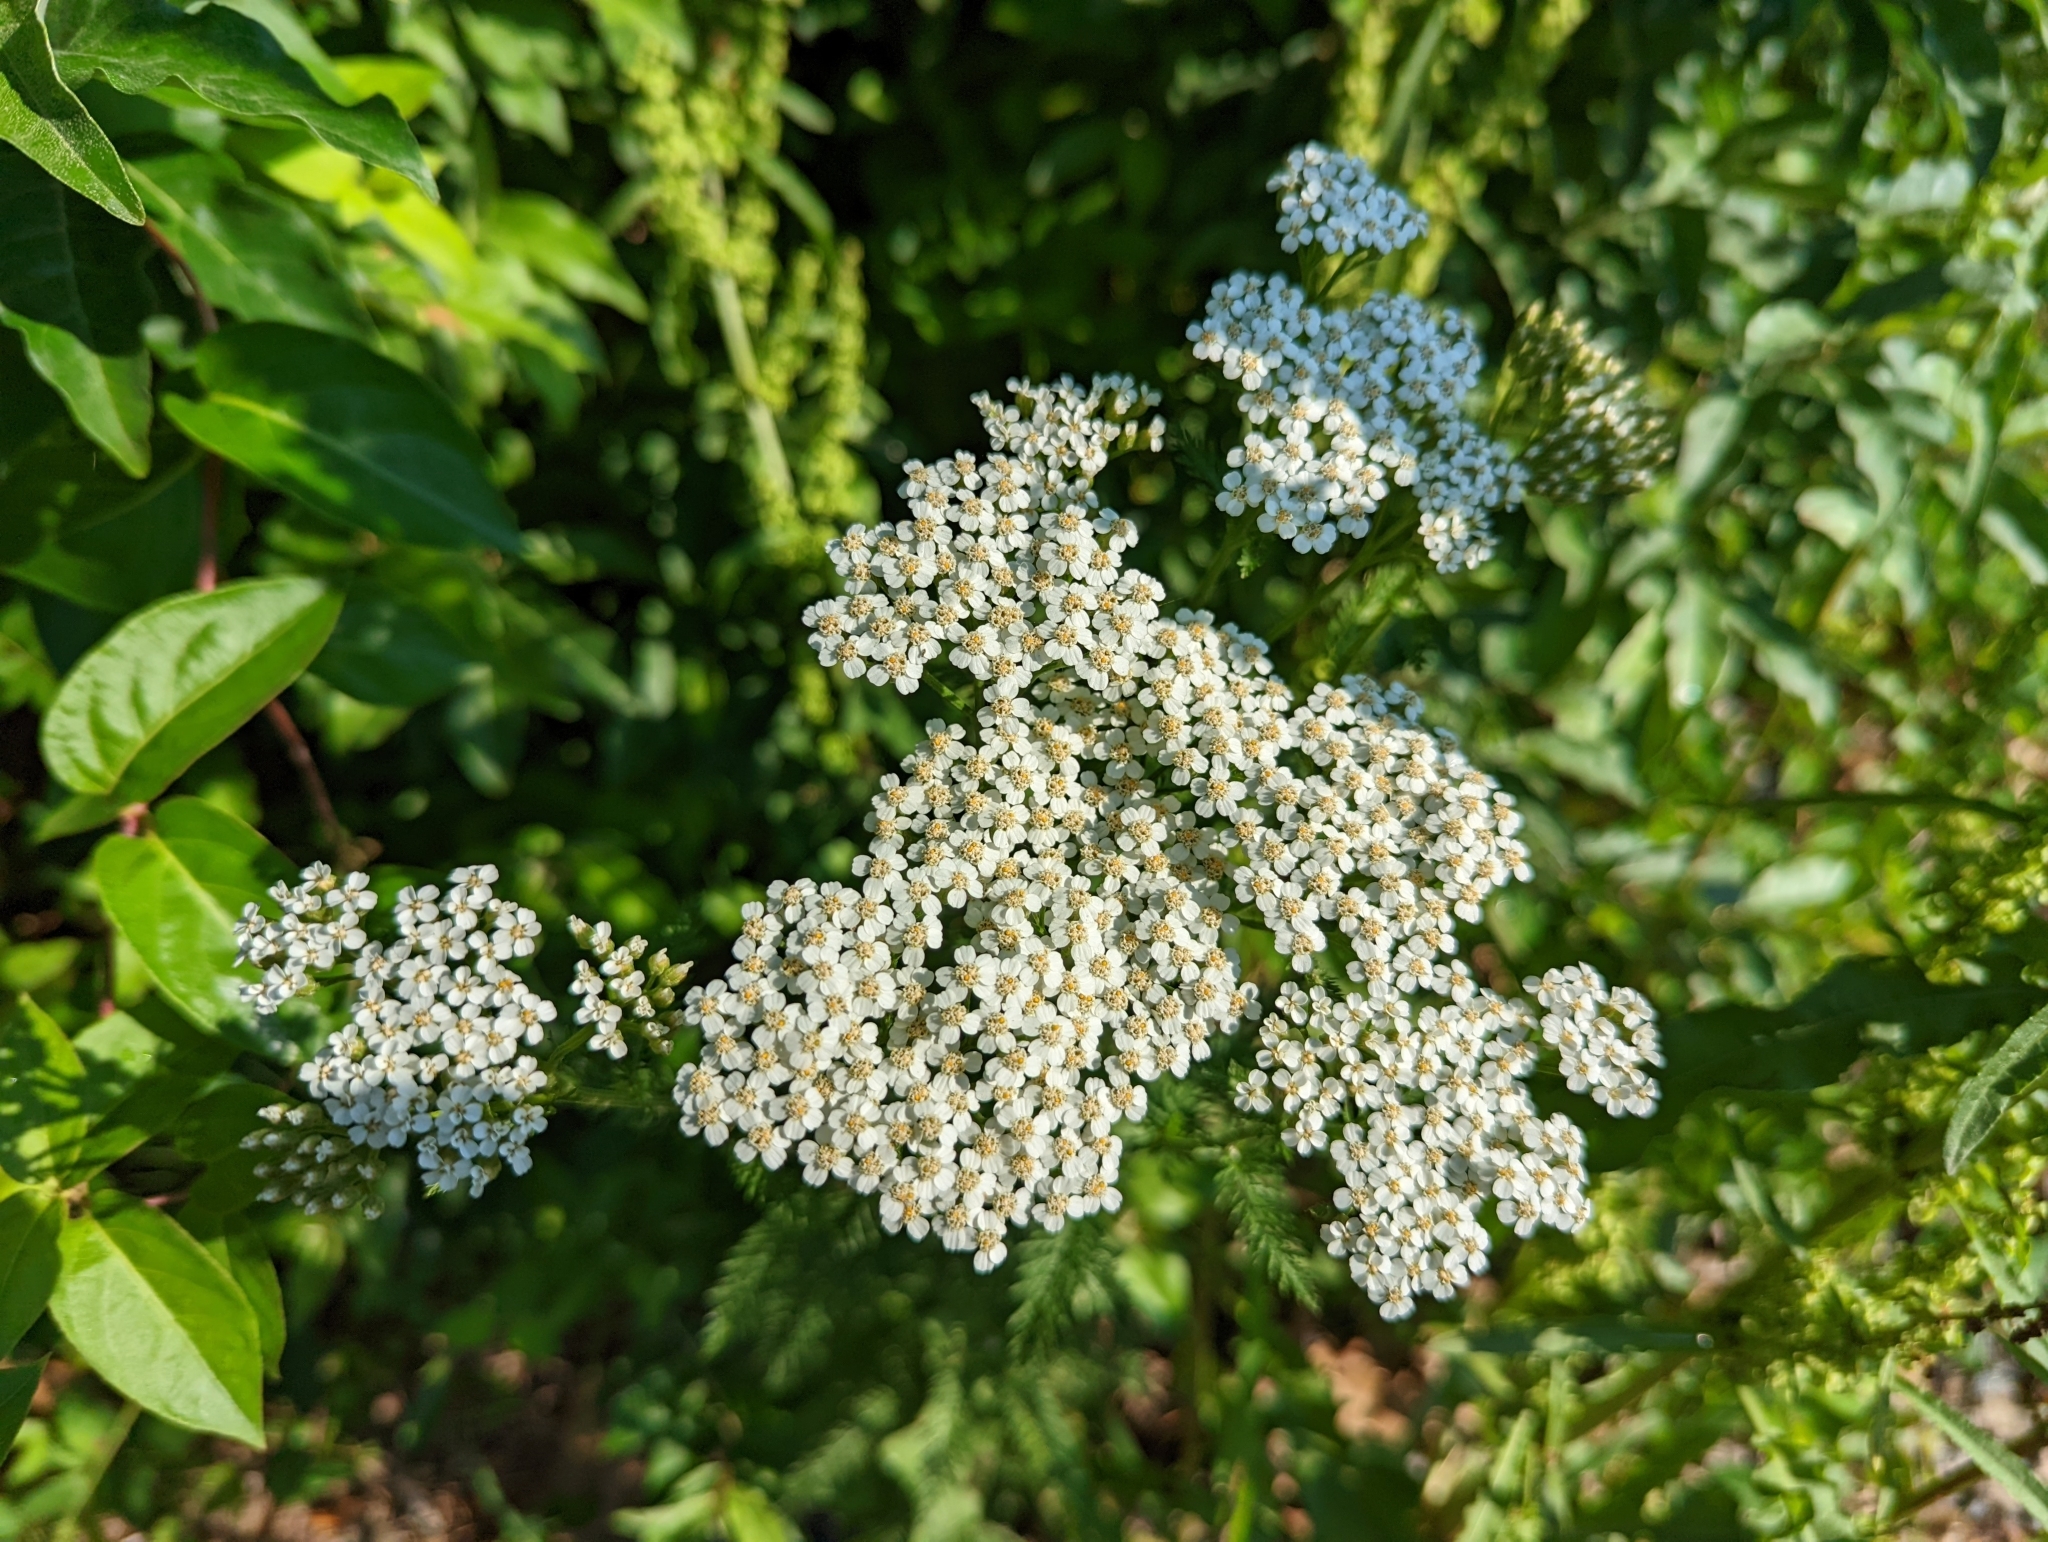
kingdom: Plantae
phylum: Tracheophyta
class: Magnoliopsida
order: Asterales
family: Asteraceae
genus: Achillea
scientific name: Achillea millefolium
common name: Yarrow
